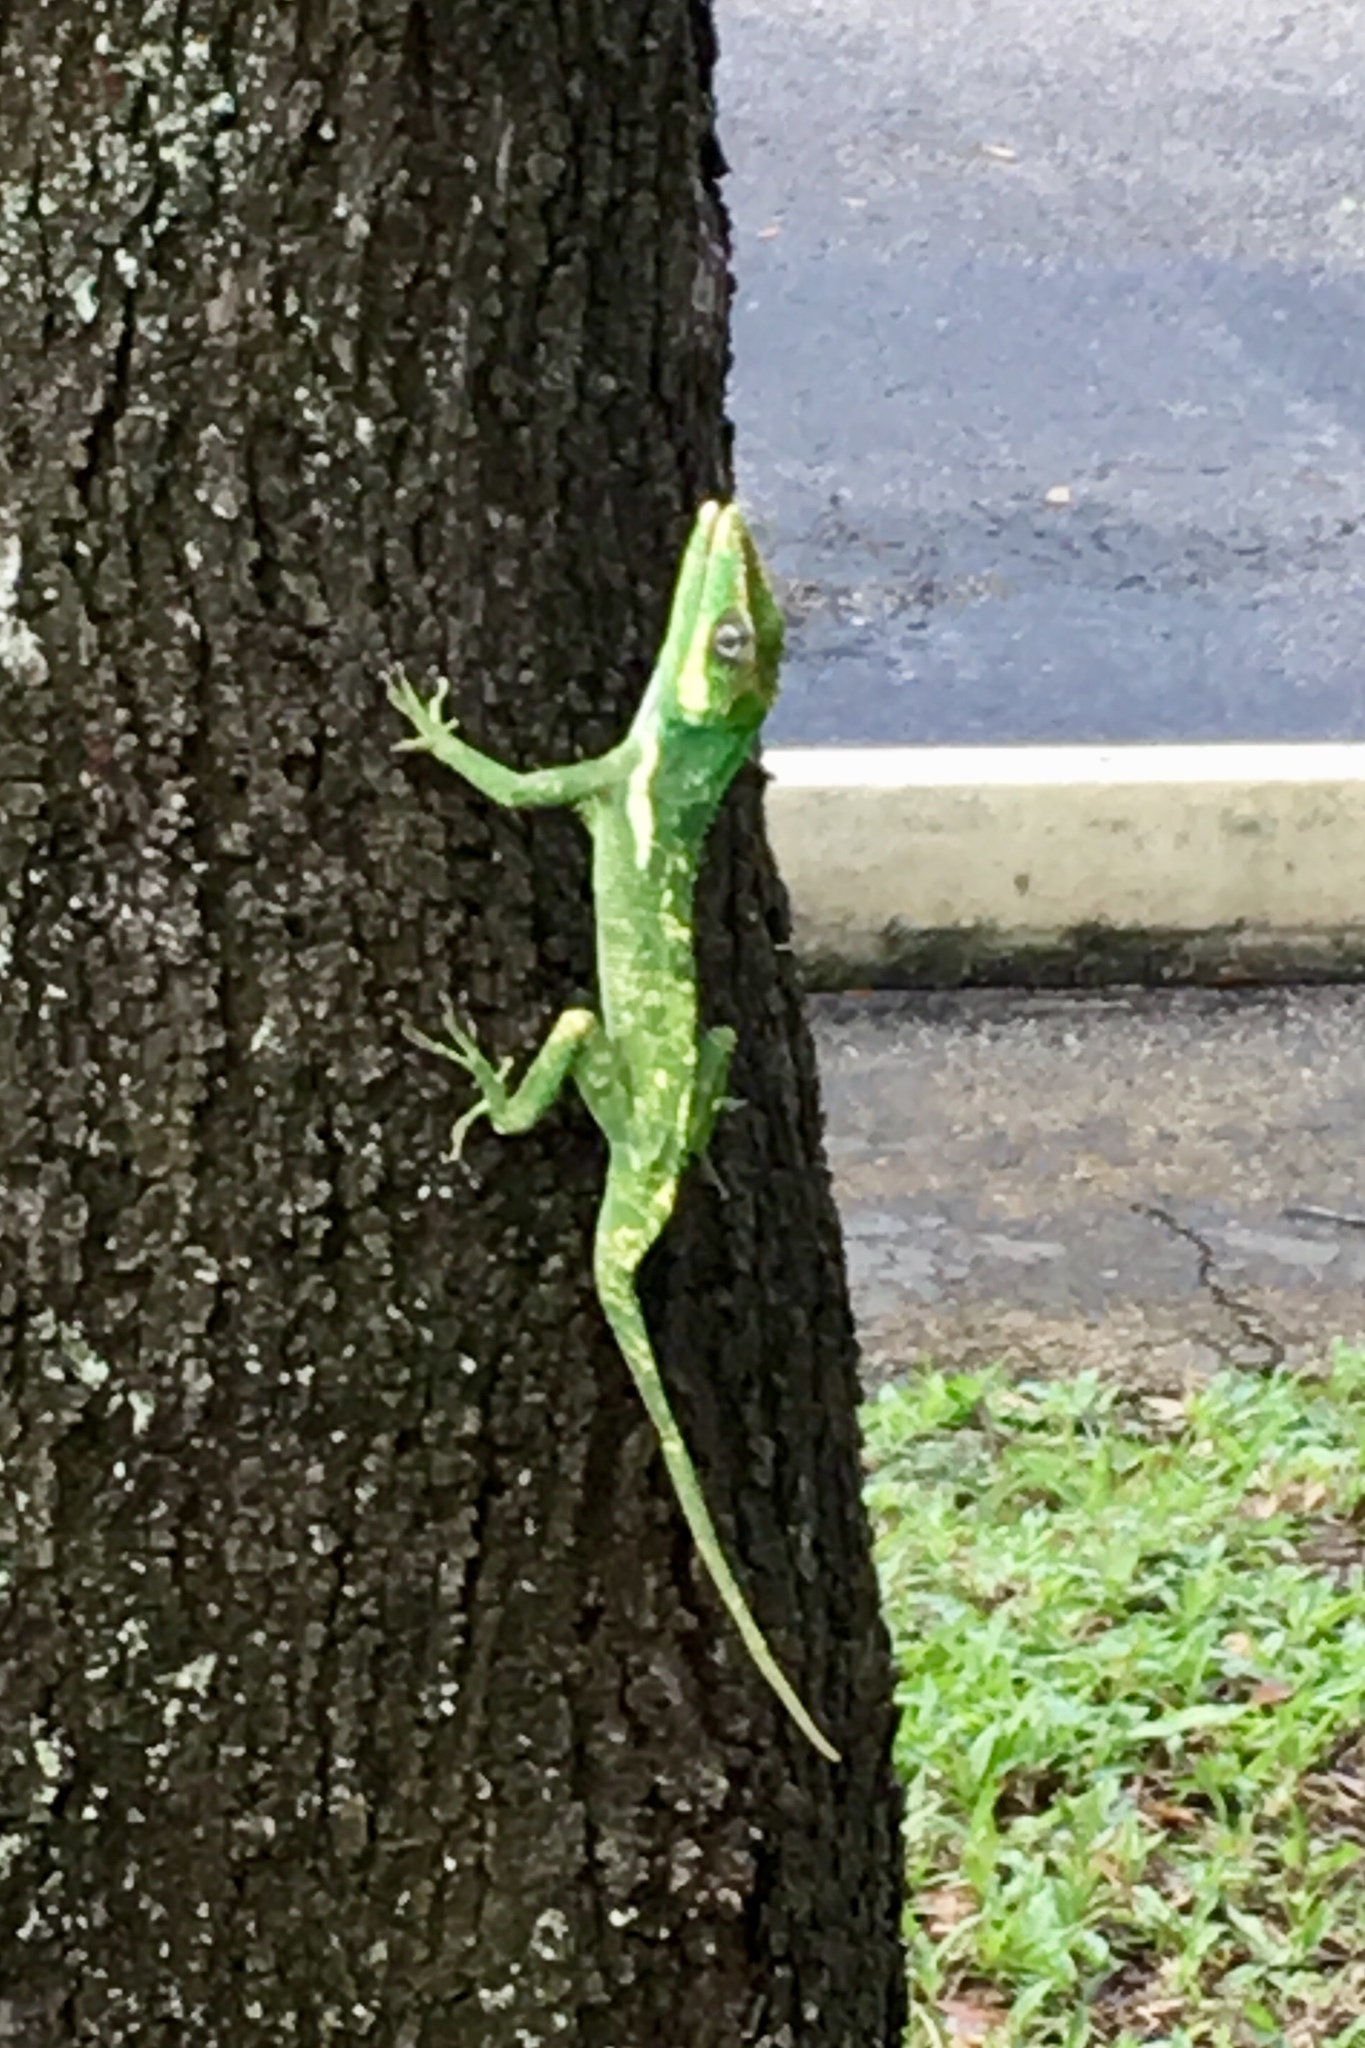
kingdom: Animalia
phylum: Chordata
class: Squamata
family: Dactyloidae
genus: Anolis
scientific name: Anolis equestris
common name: Knight anole
